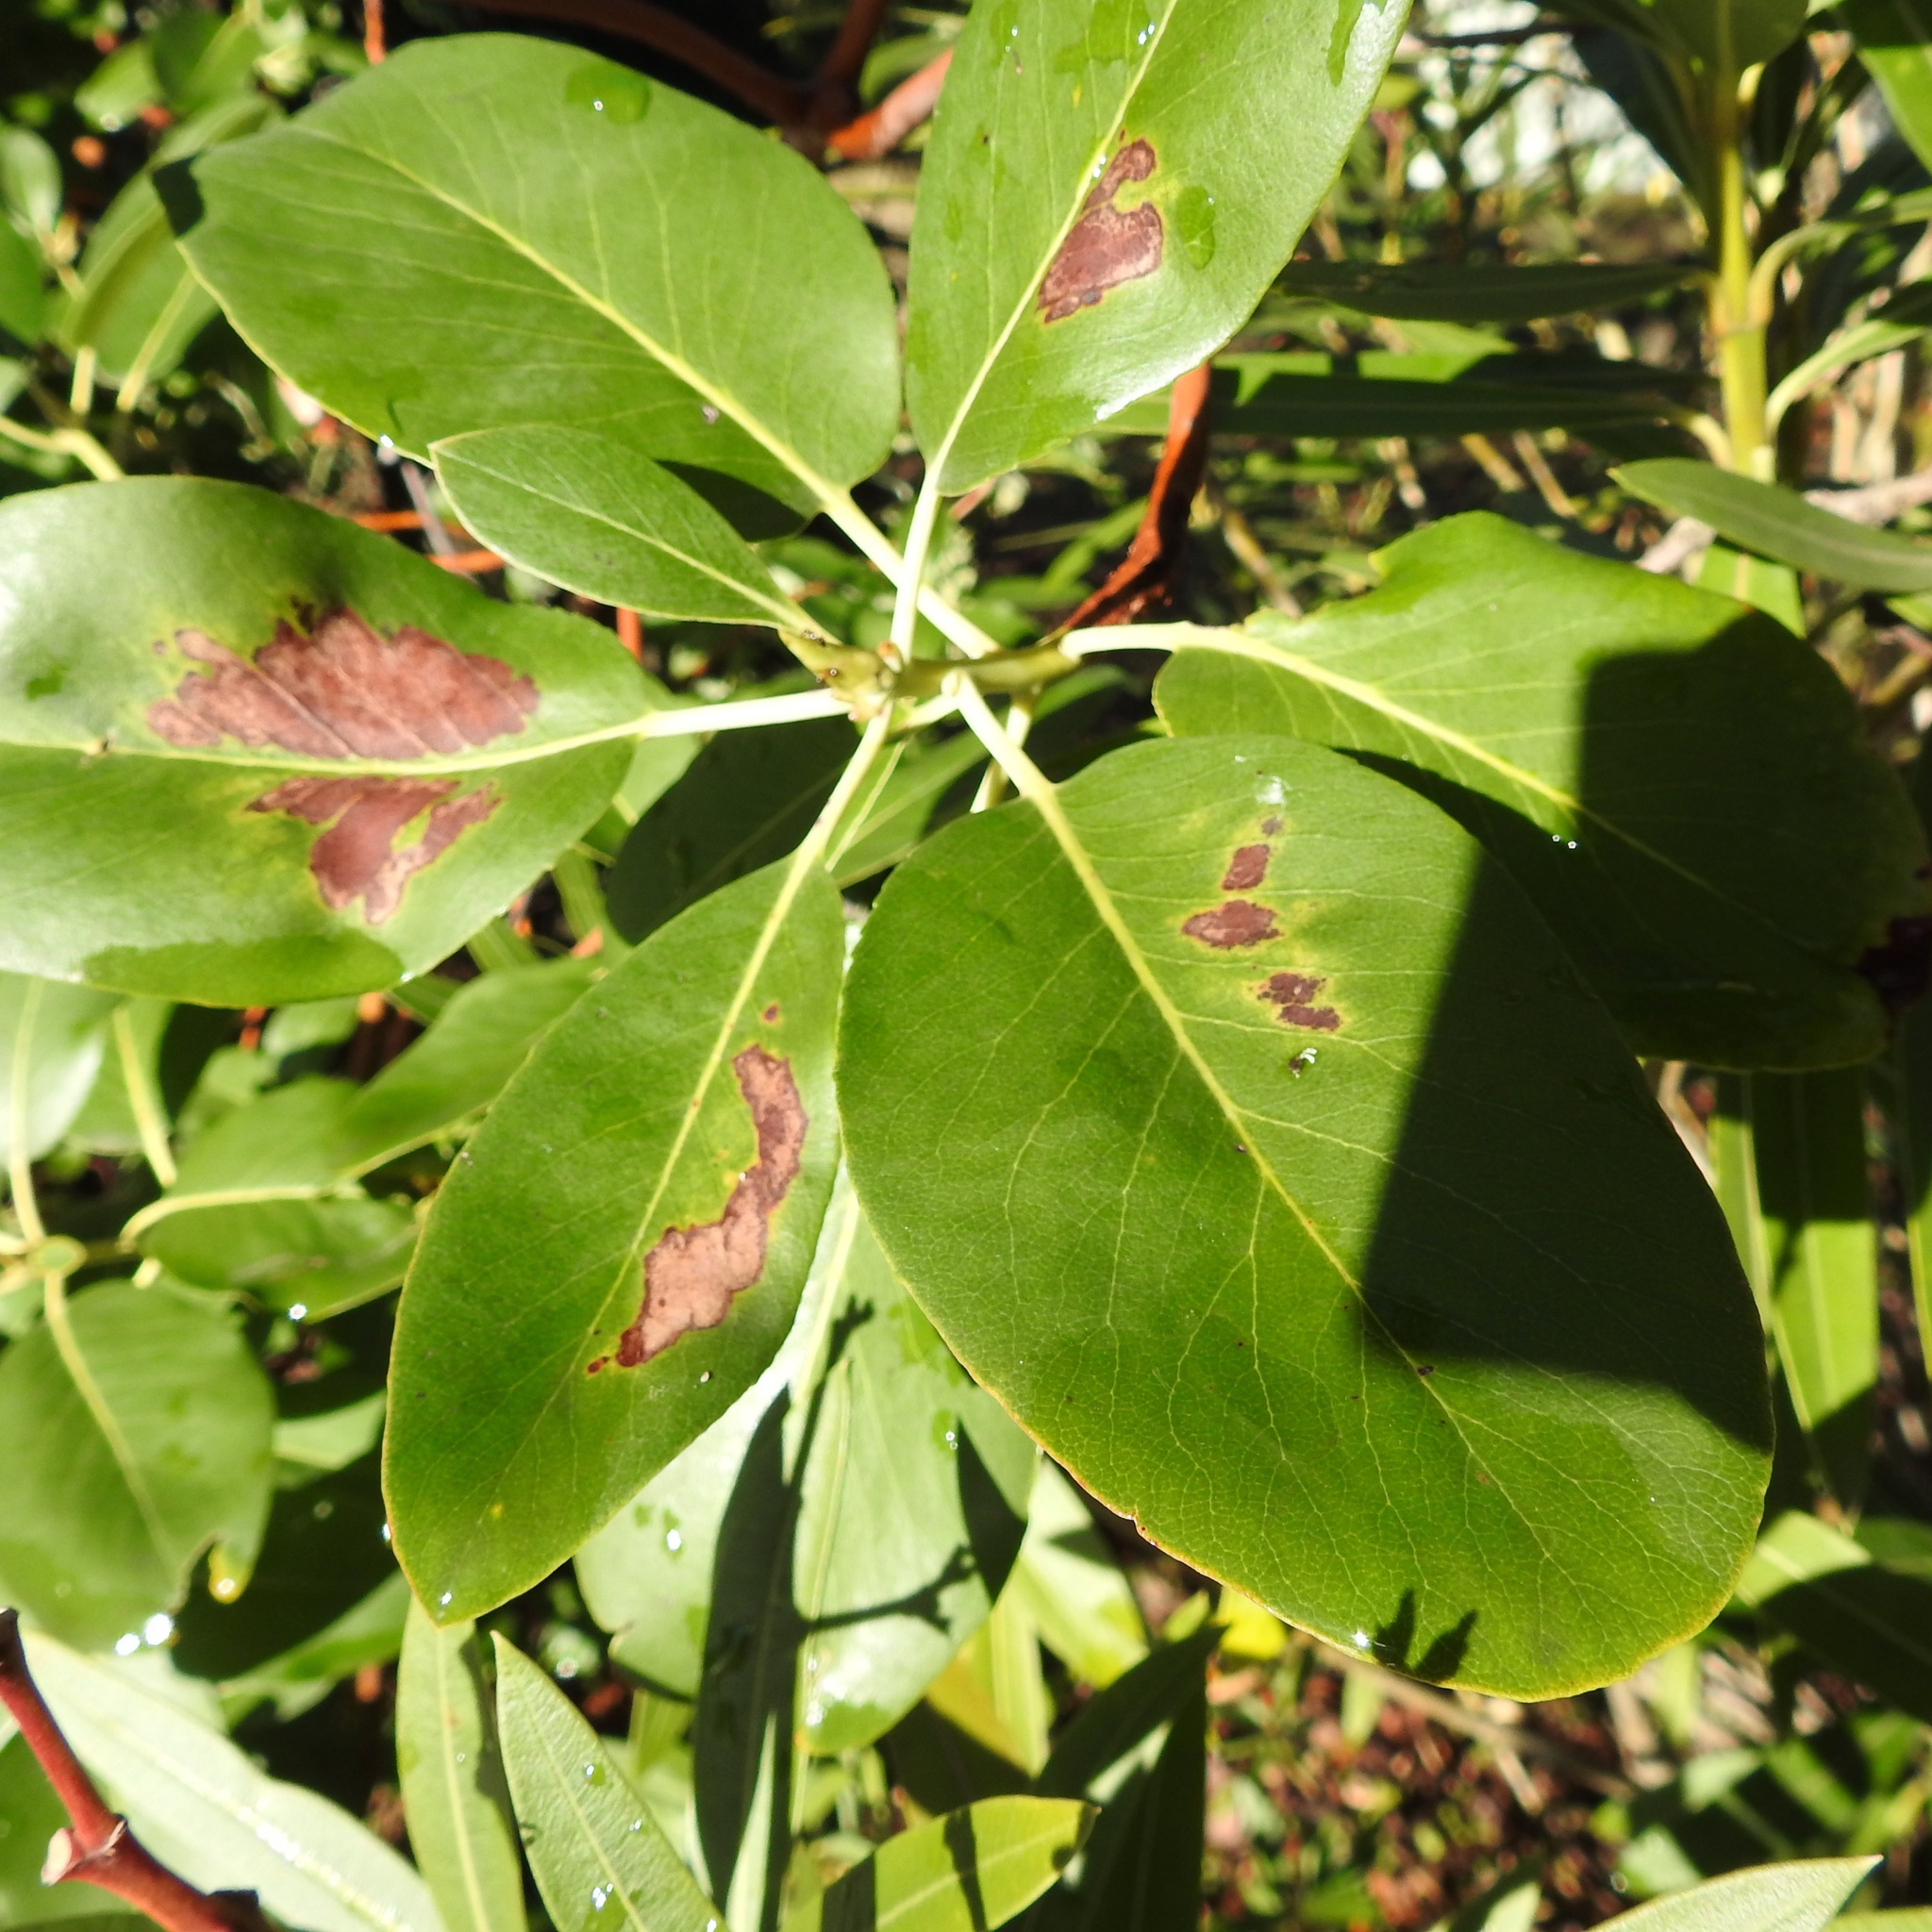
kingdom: Plantae
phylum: Tracheophyta
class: Magnoliopsida
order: Ericales
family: Ericaceae
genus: Arbutus
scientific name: Arbutus menziesii
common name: Pacific madrone
